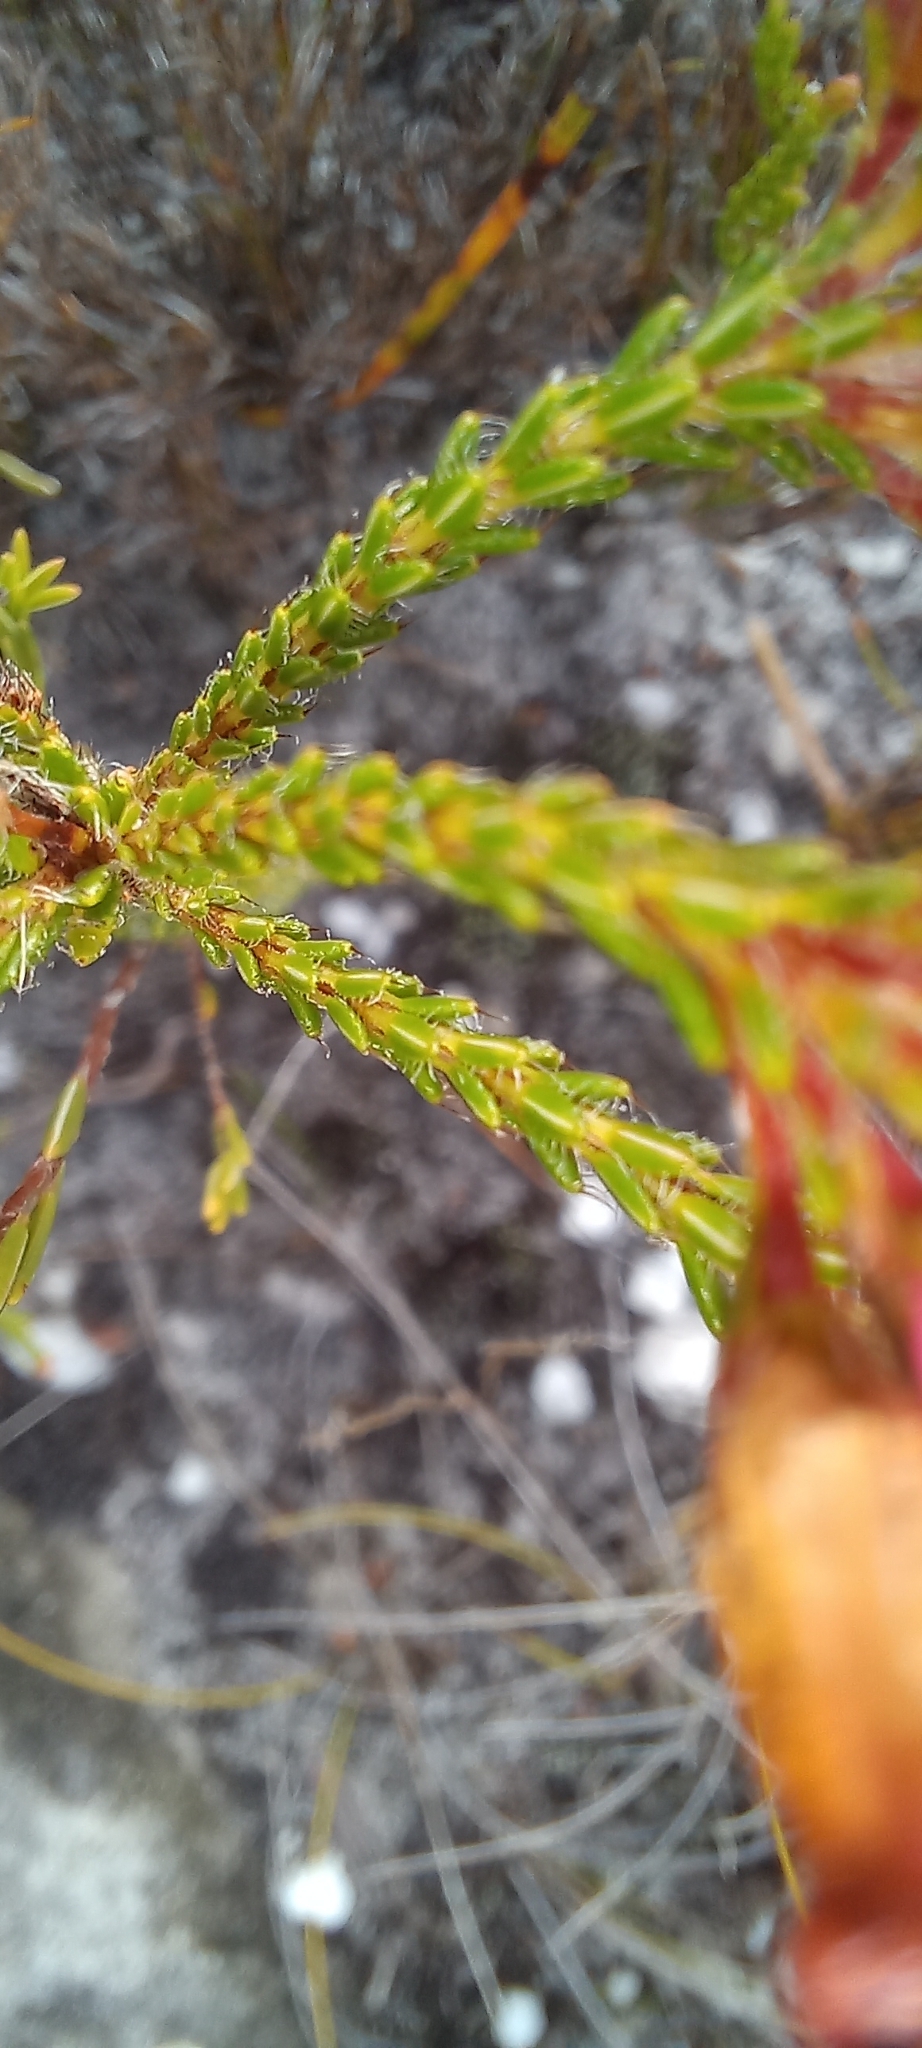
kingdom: Plantae
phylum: Tracheophyta
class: Magnoliopsida
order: Ericales
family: Ericaceae
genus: Erica
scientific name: Erica cristata
